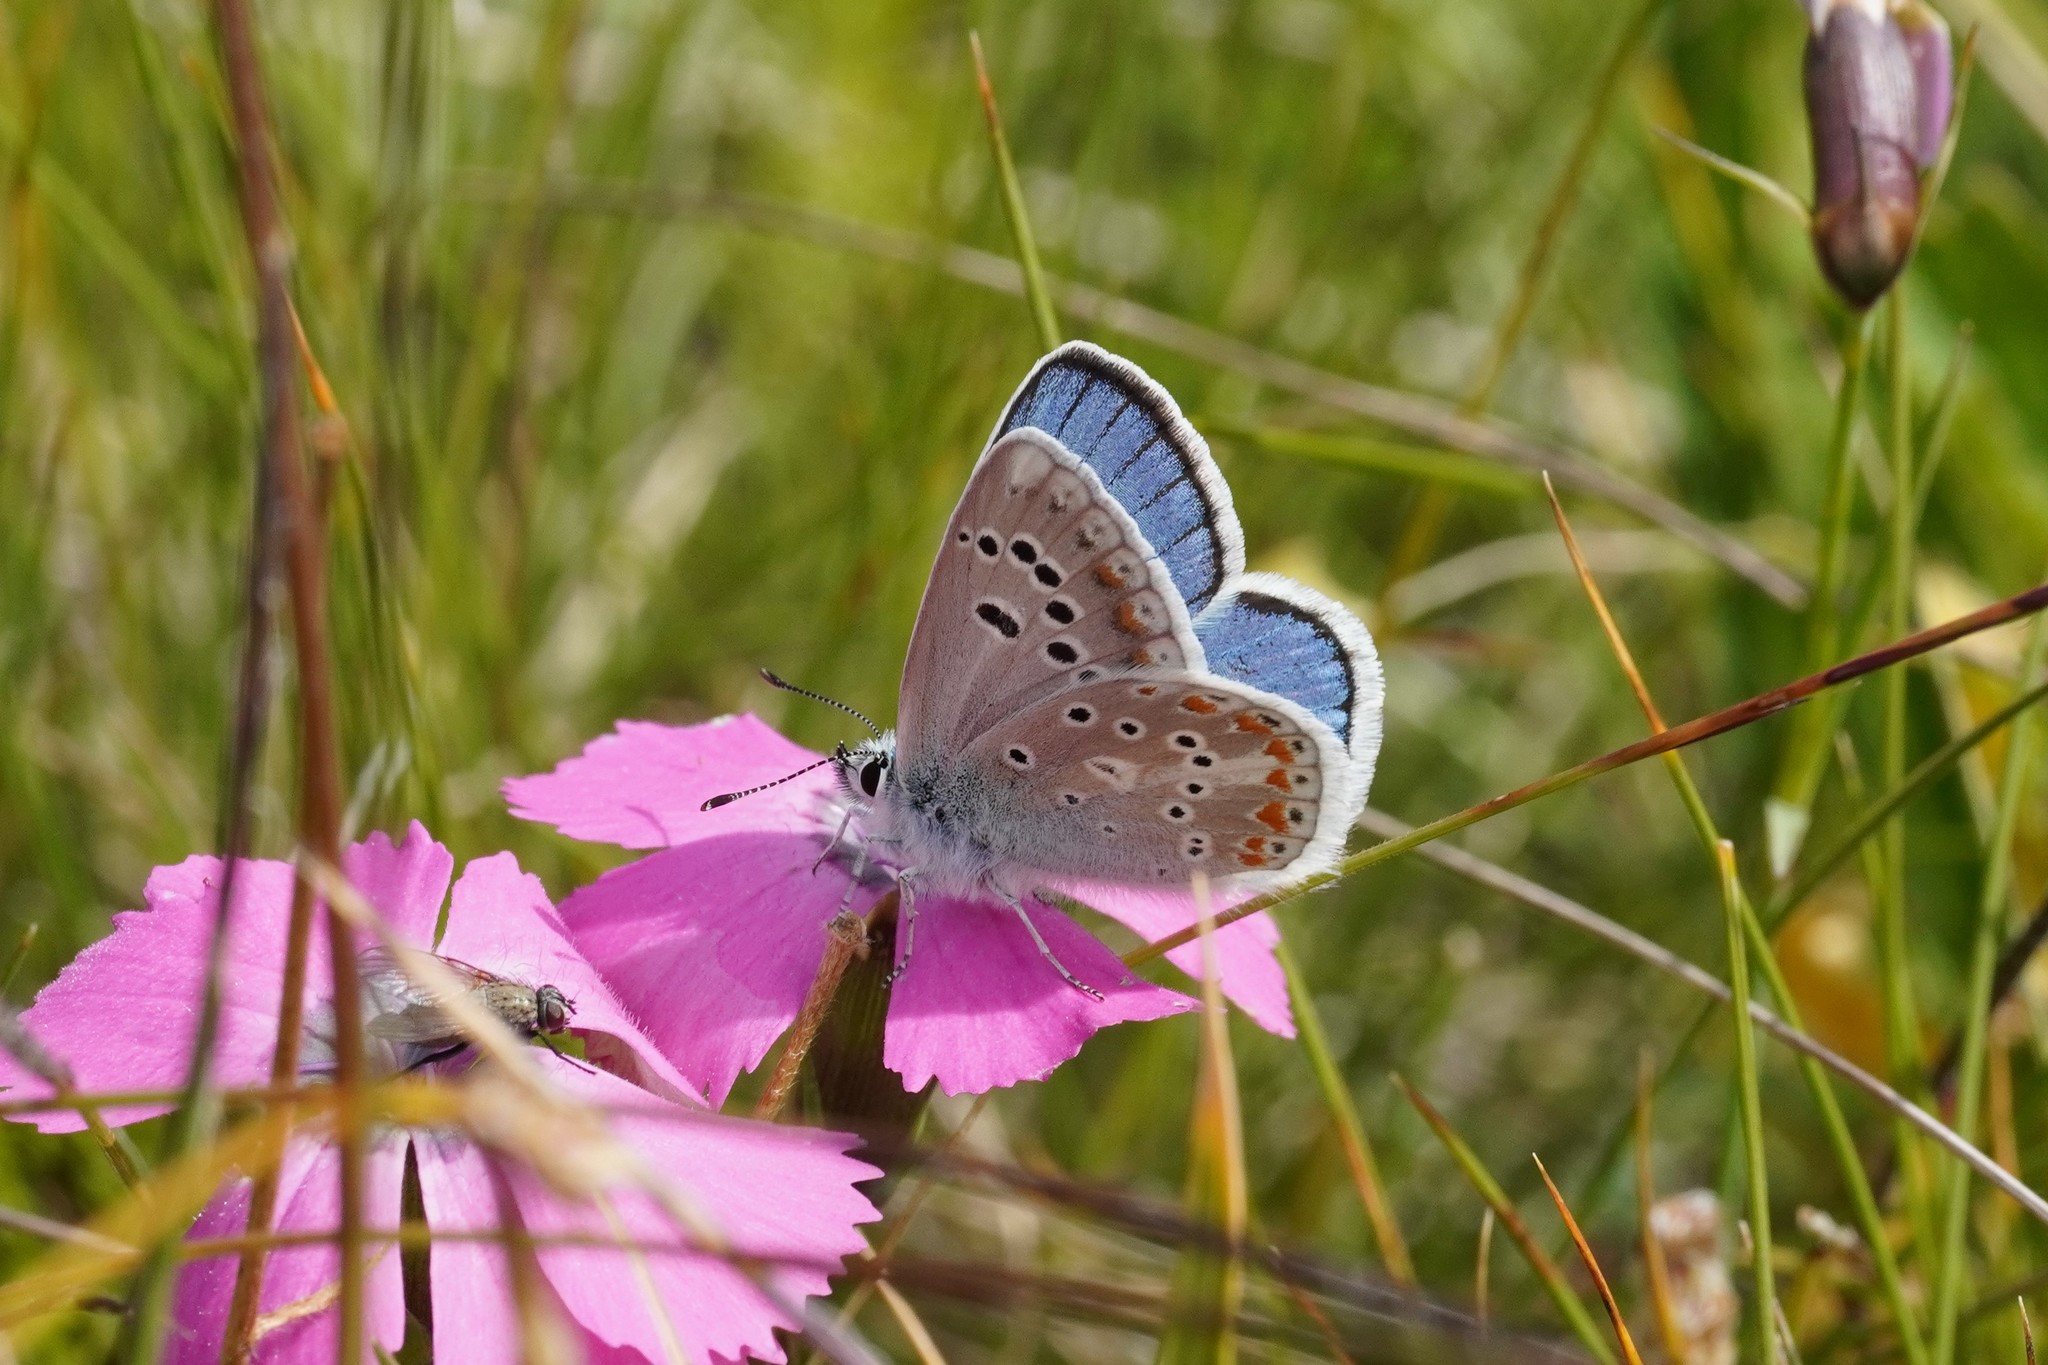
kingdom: Animalia
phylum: Arthropoda
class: Insecta
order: Lepidoptera
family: Lycaenidae
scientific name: Lycaenidae
